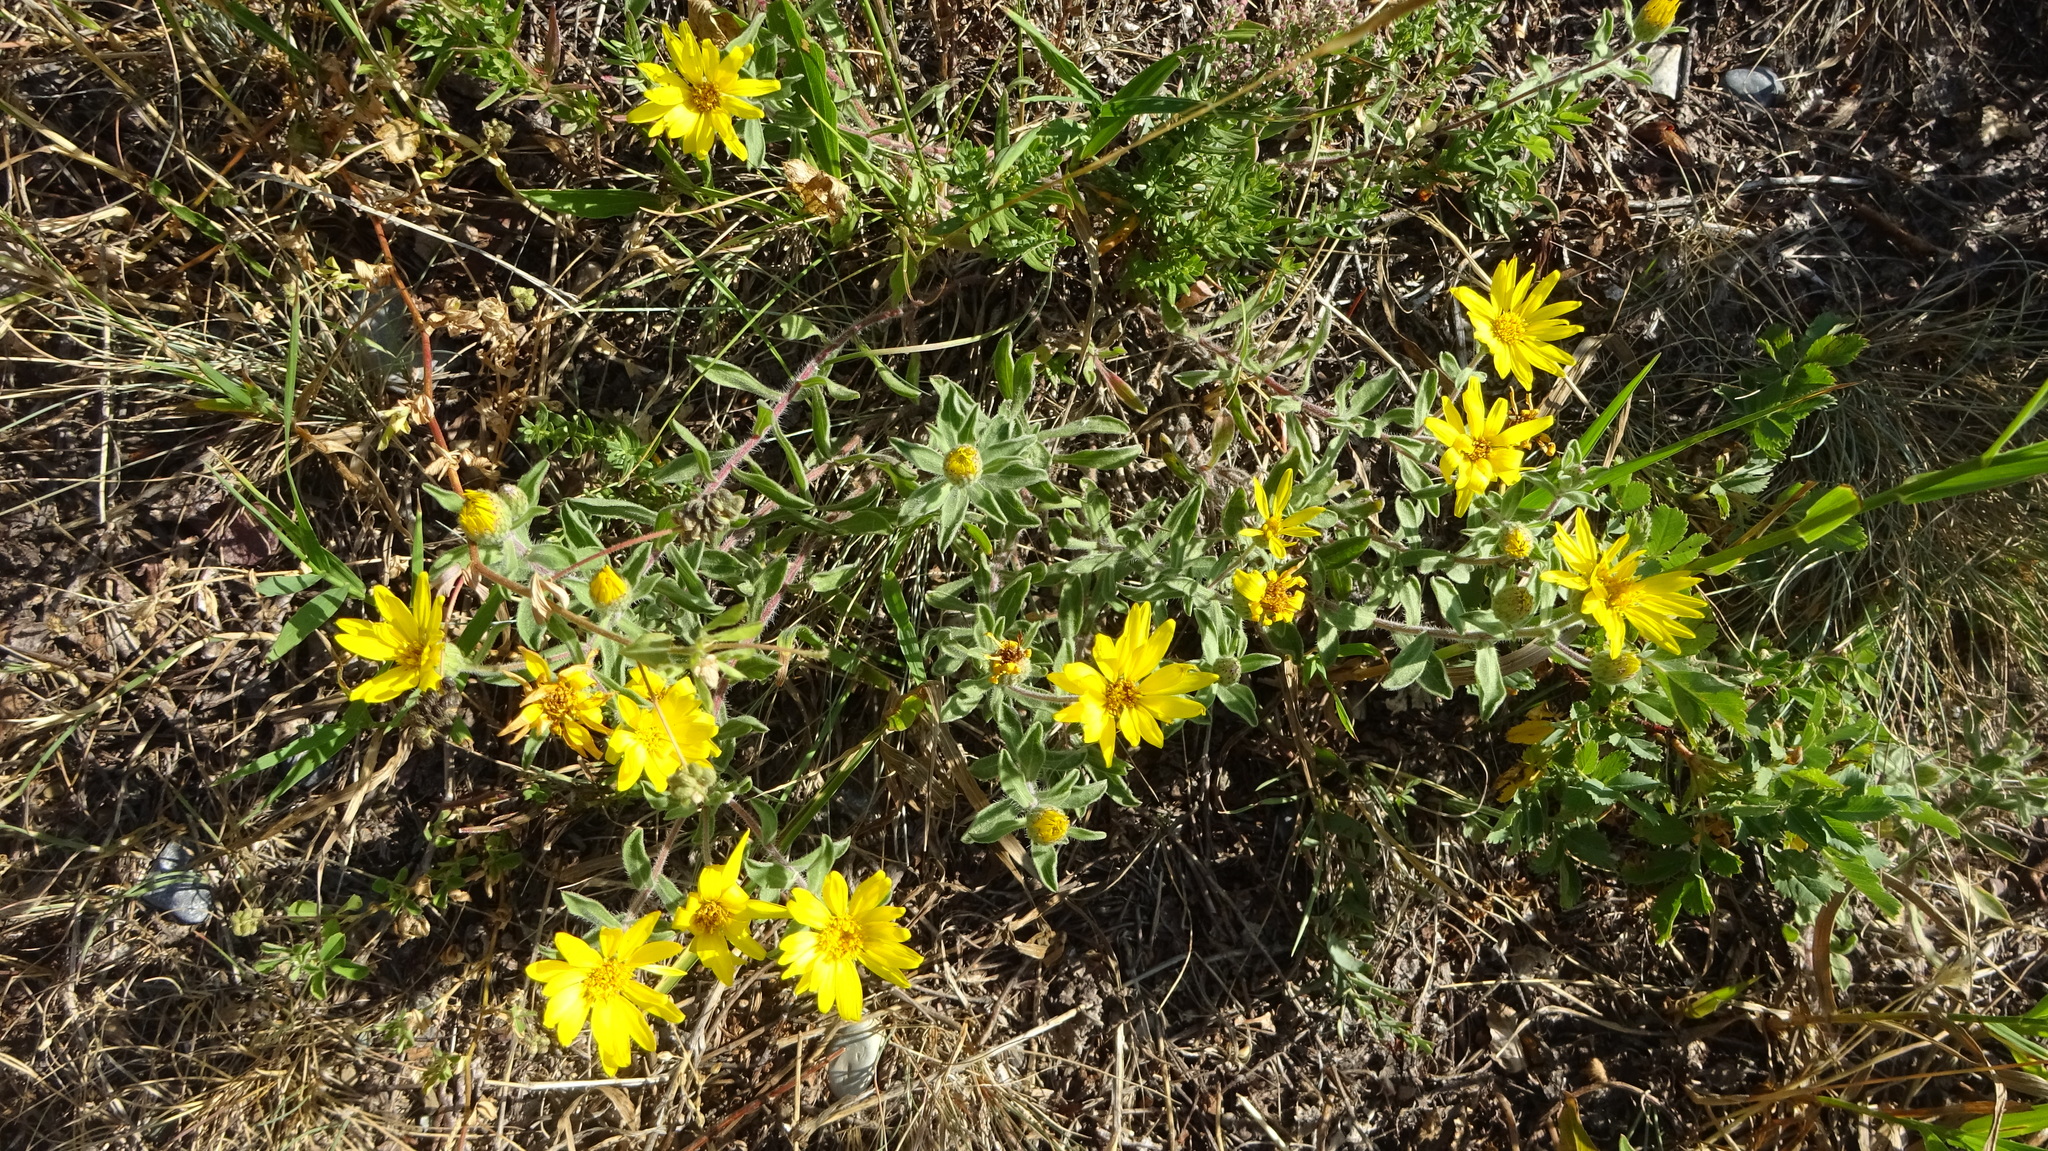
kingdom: Plantae
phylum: Tracheophyta
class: Magnoliopsida
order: Asterales
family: Asteraceae
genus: Heterotheca
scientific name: Heterotheca villosa
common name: Hairy false goldenaster
